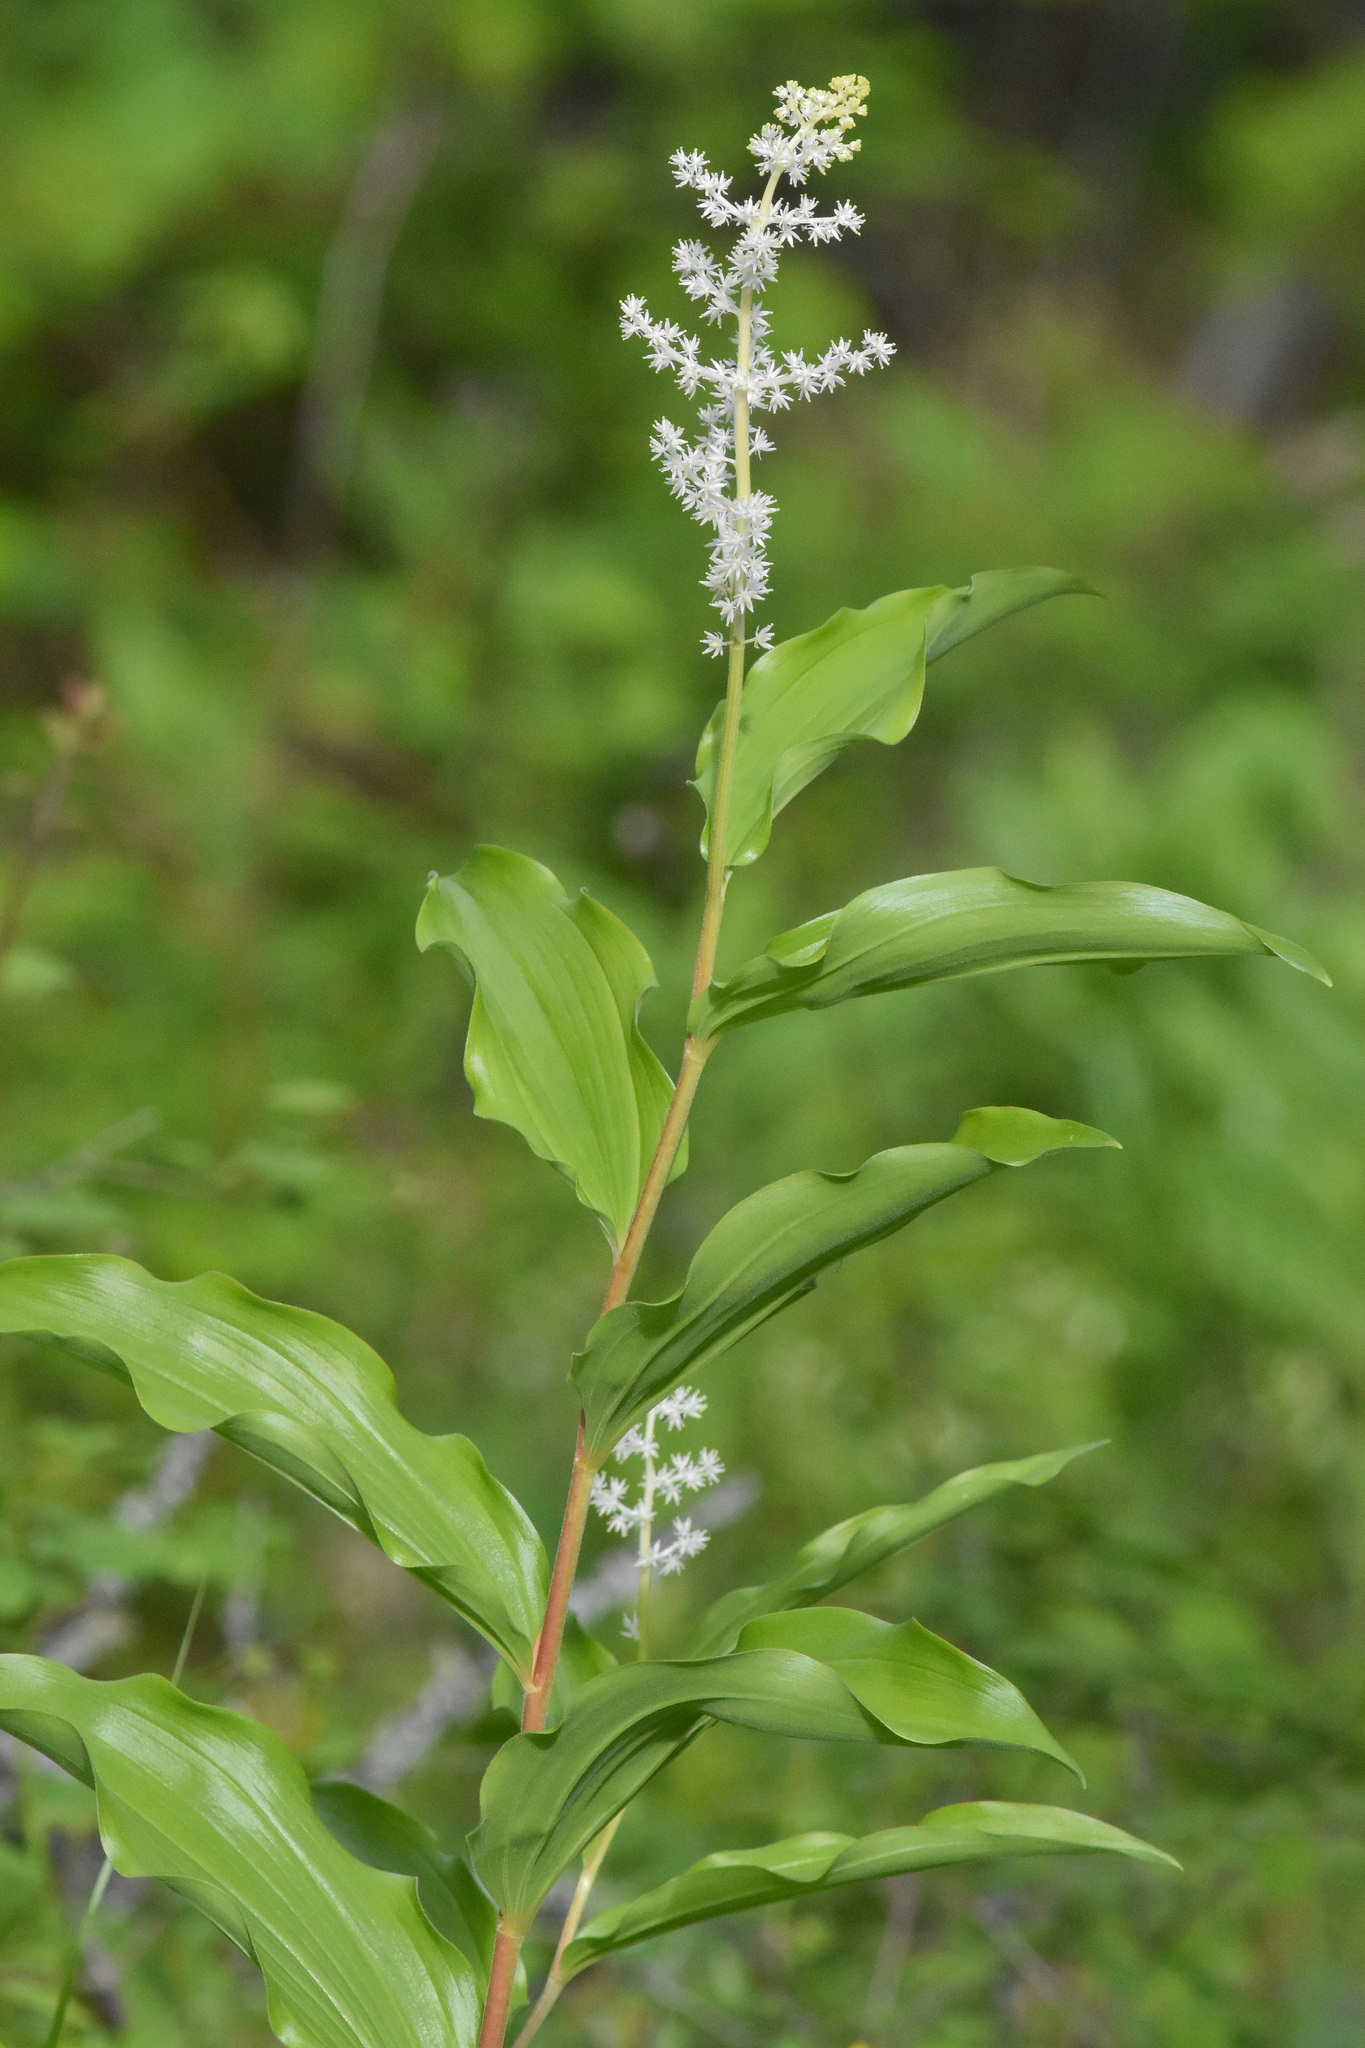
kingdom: Plantae
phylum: Tracheophyta
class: Liliopsida
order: Asparagales
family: Asparagaceae
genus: Maianthemum
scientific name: Maianthemum racemosum
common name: False spikenard
